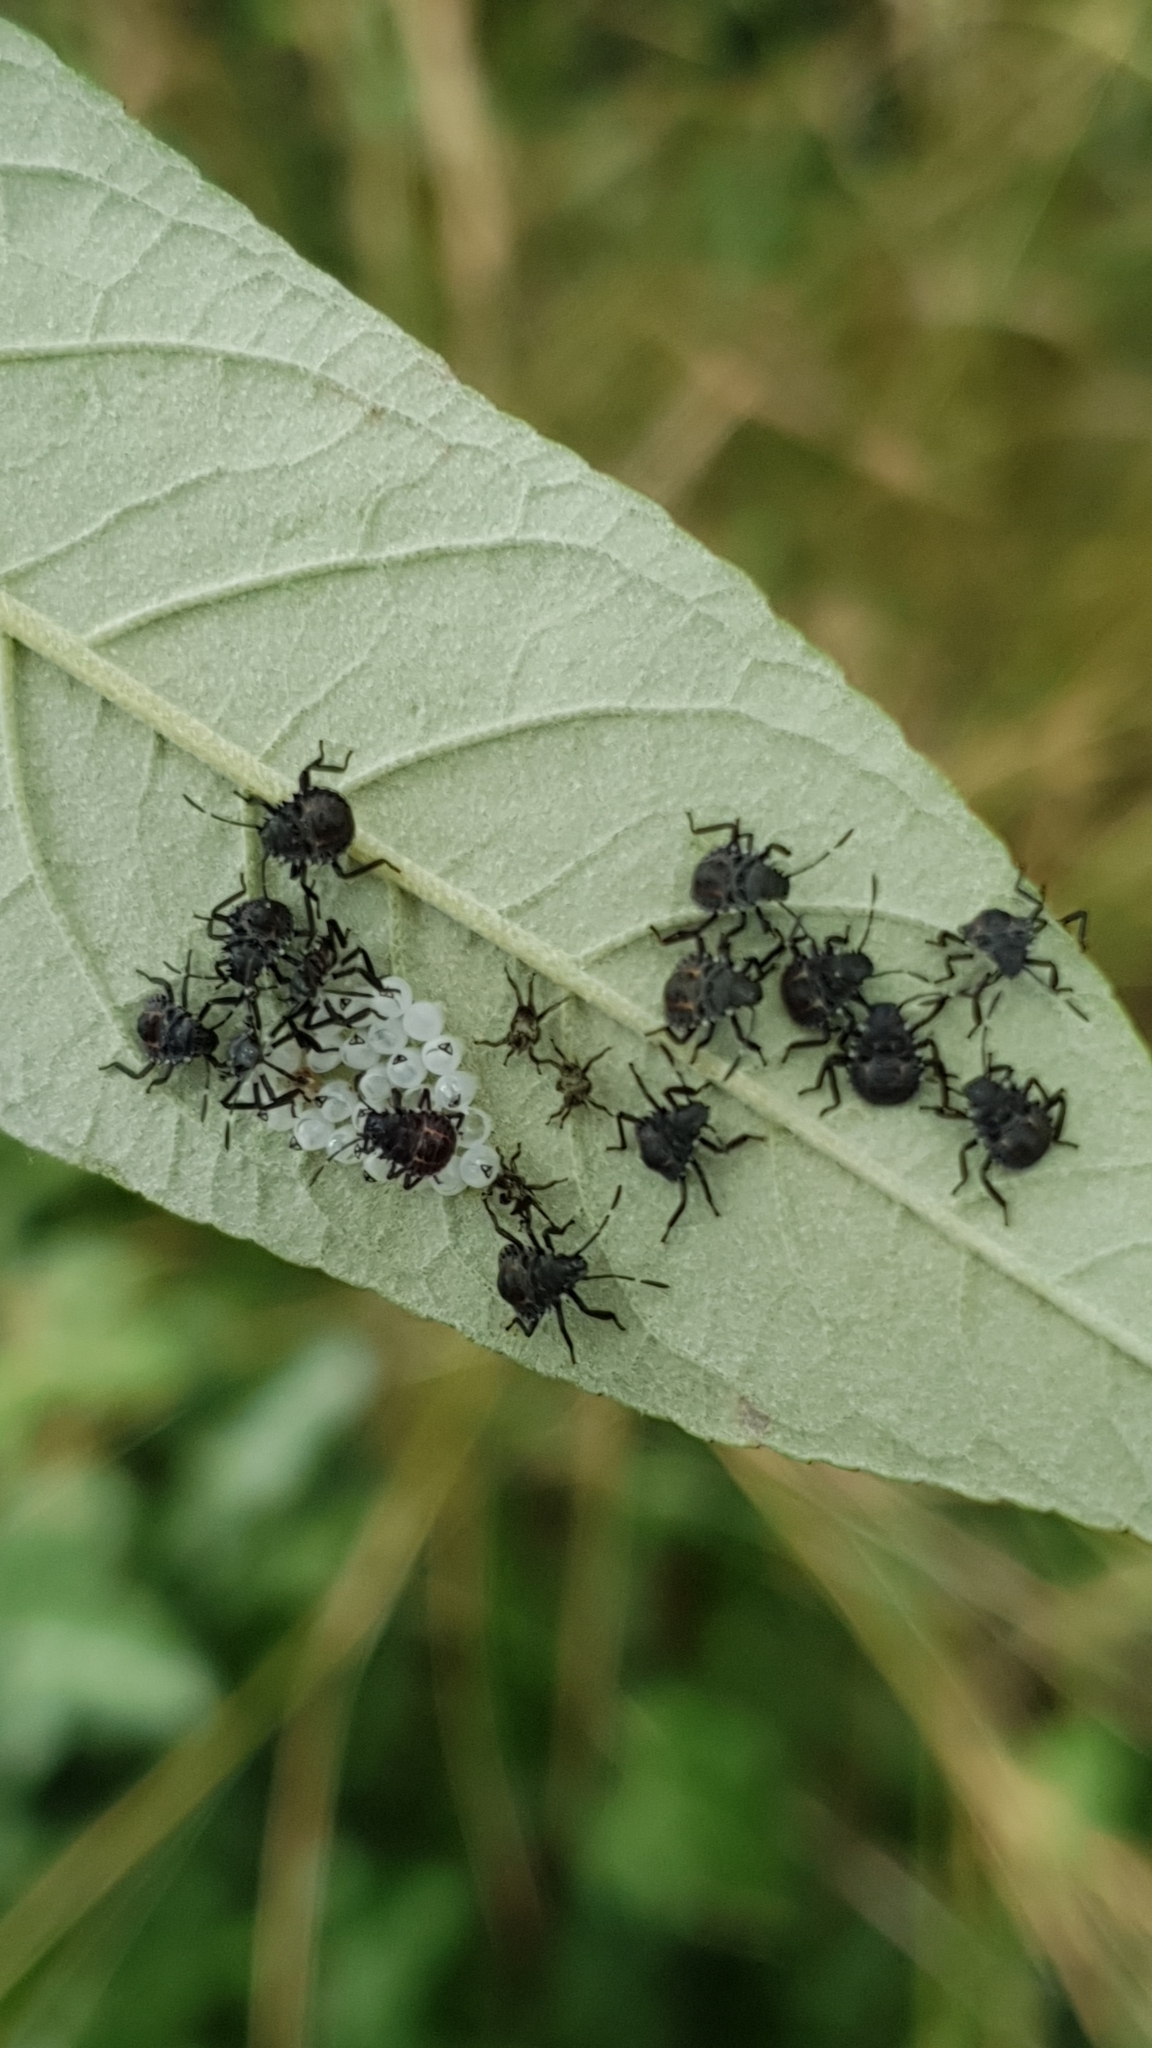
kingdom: Animalia
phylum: Arthropoda
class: Insecta
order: Hemiptera
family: Pentatomidae
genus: Halyomorpha
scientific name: Halyomorpha halys
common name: Brown marmorated stink bug
